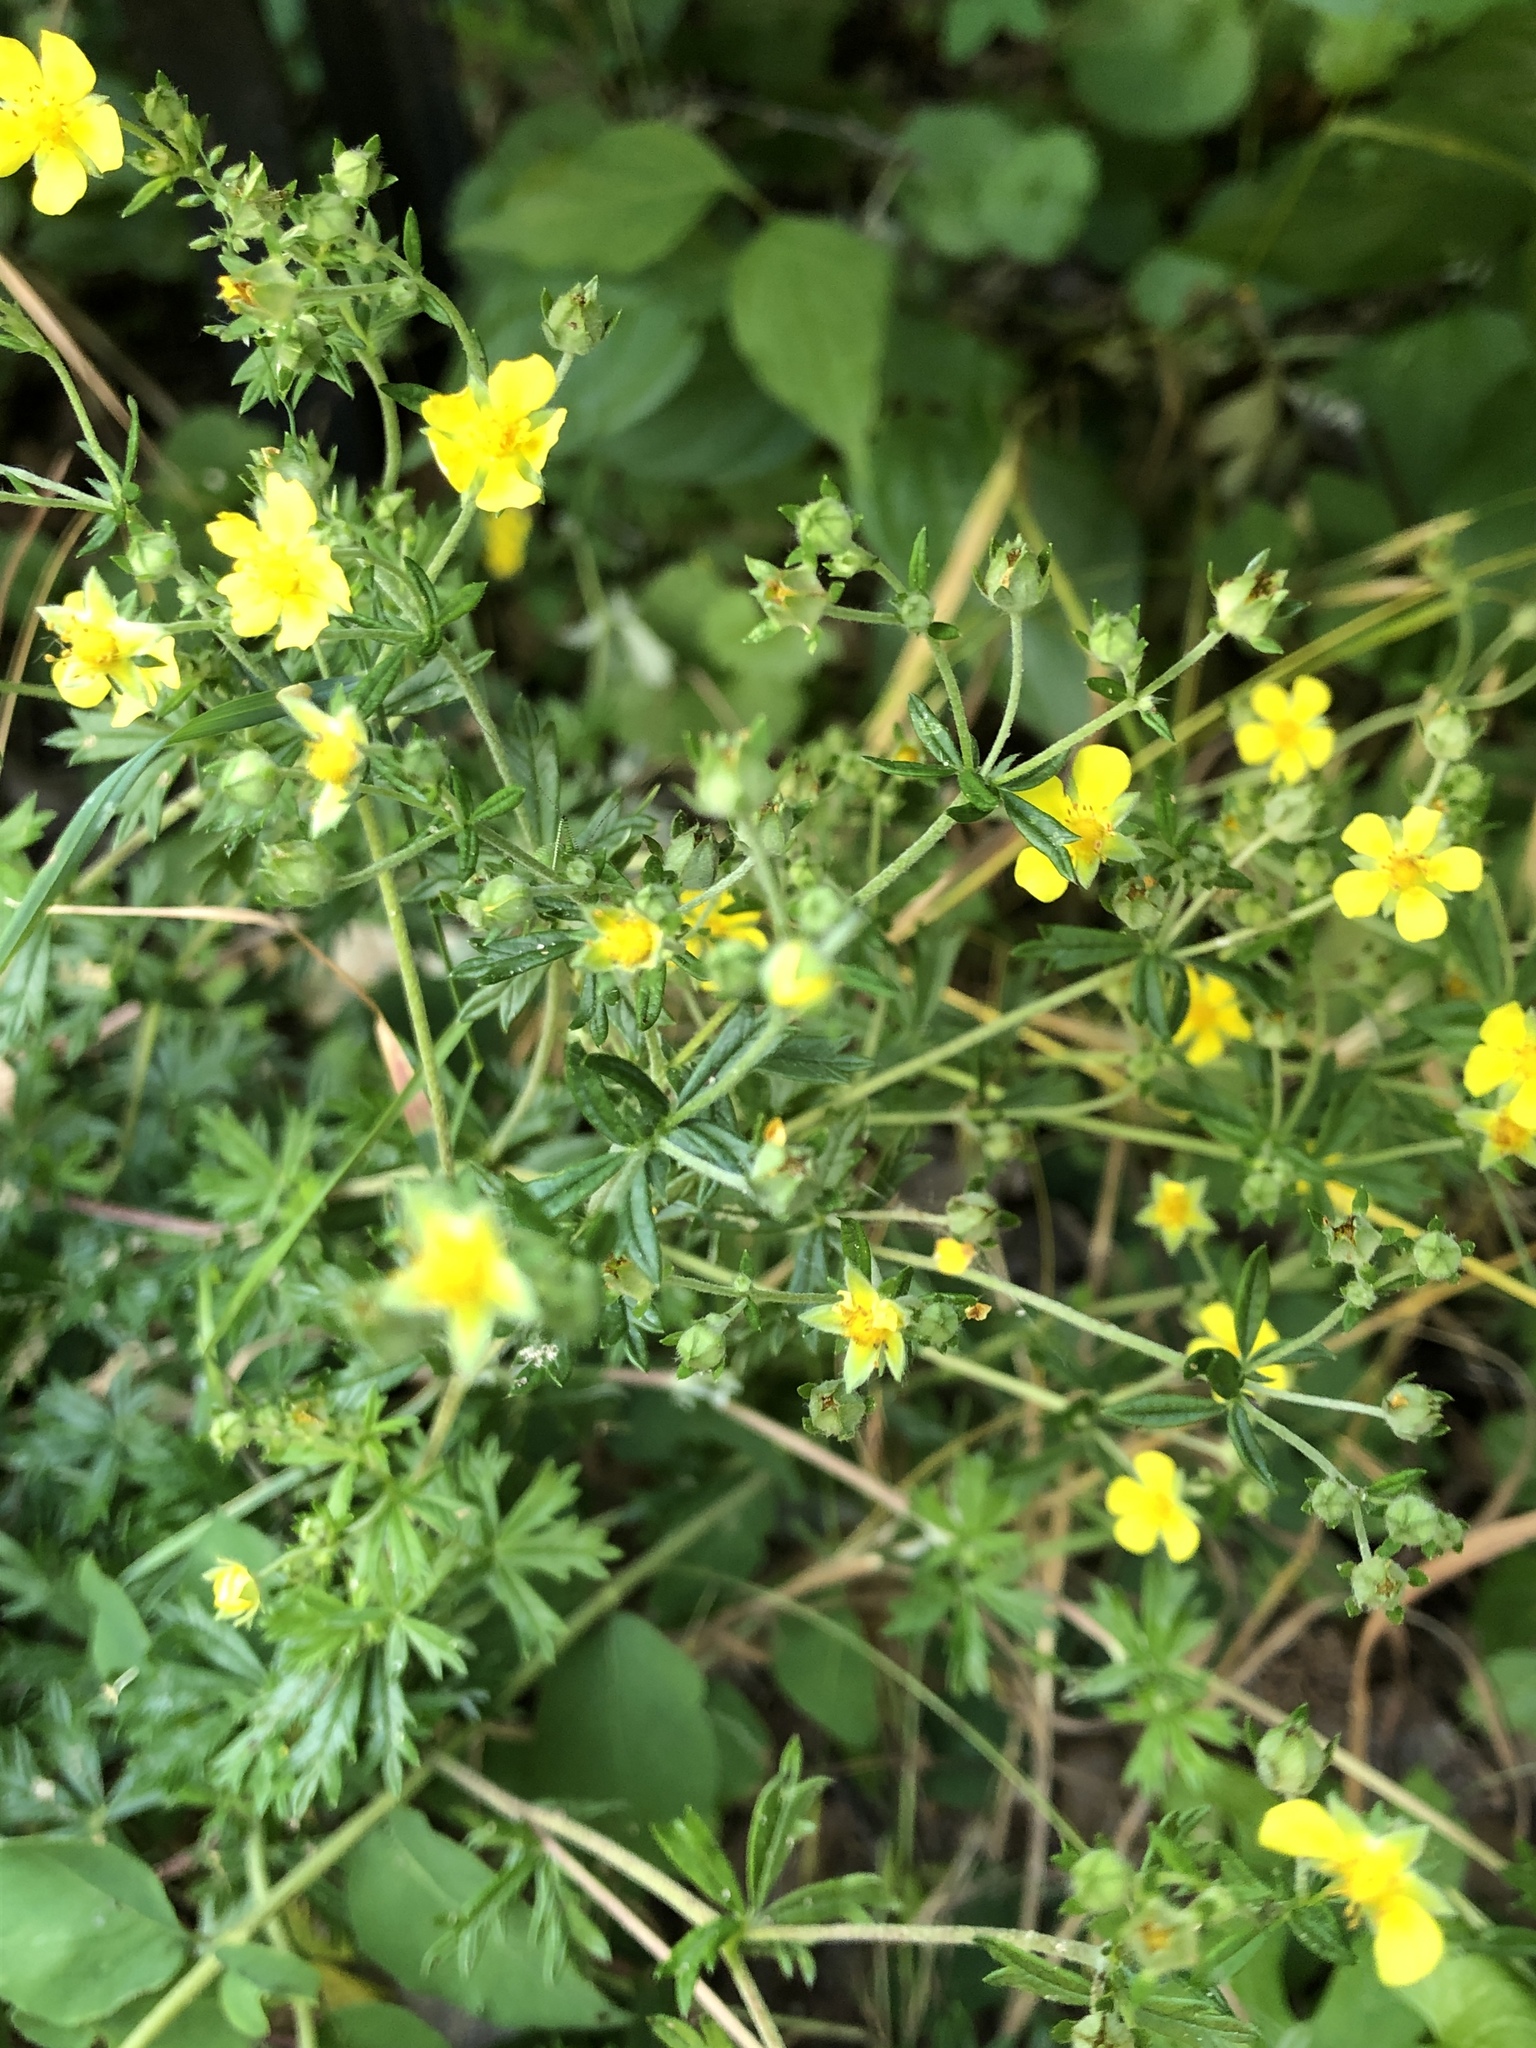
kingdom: Plantae
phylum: Tracheophyta
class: Magnoliopsida
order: Rosales
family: Rosaceae
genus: Potentilla
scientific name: Potentilla argentea
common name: Hoary cinquefoil
